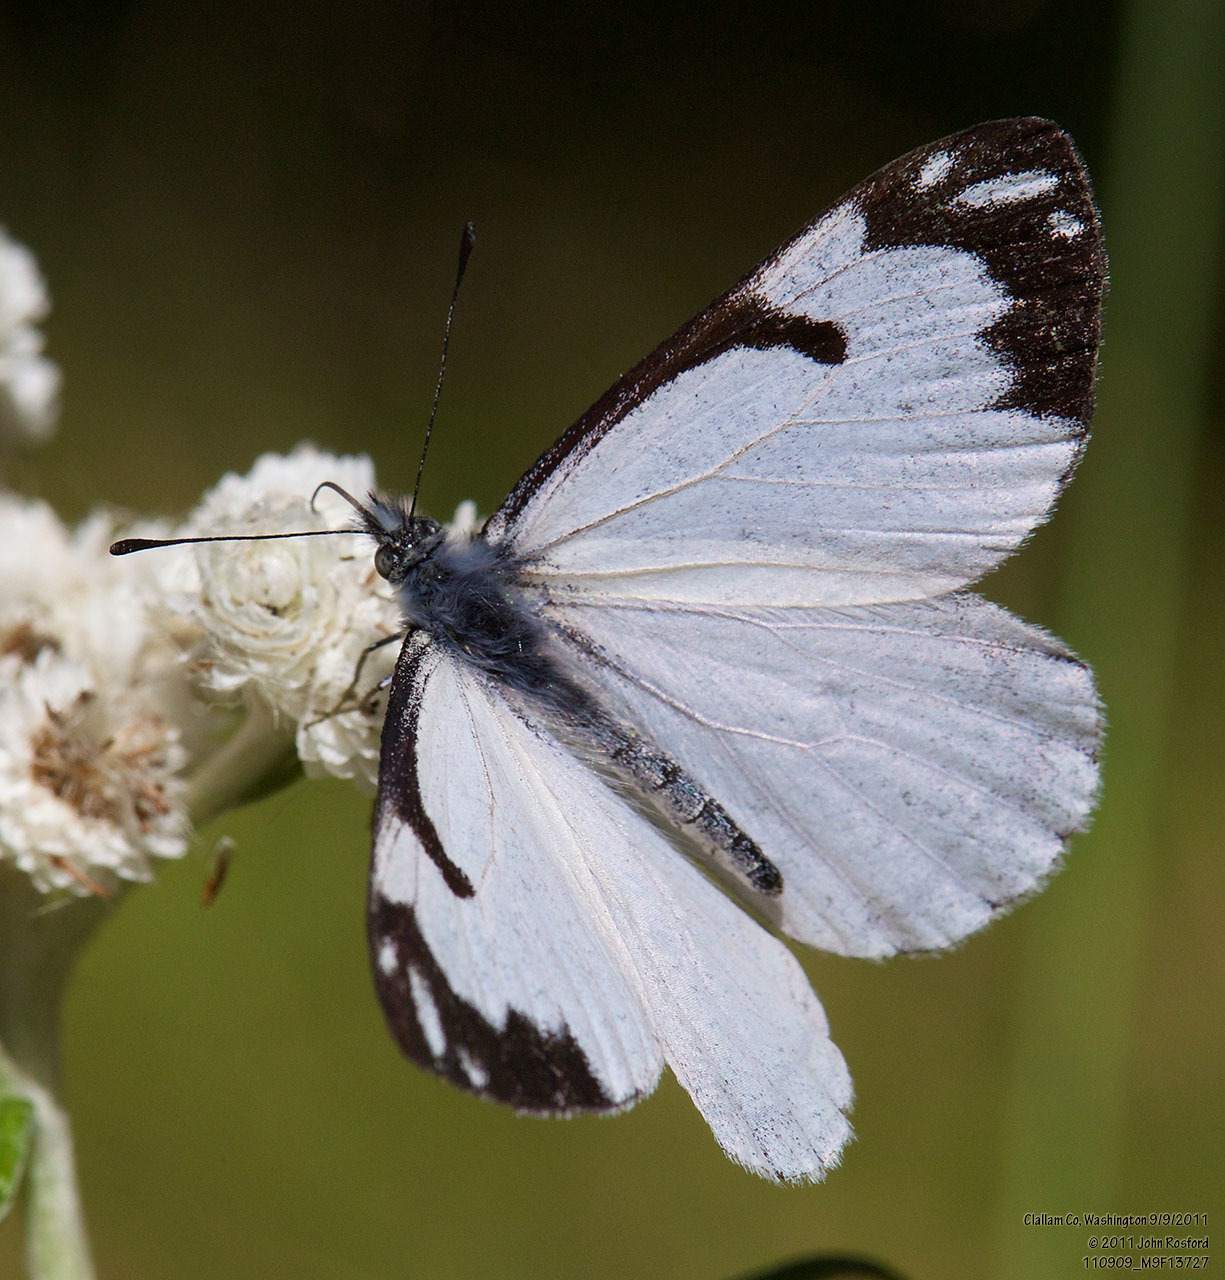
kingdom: Animalia
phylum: Arthropoda
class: Insecta
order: Lepidoptera
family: Pieridae
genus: Neophasia
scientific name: Neophasia menapia
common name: Pine white
